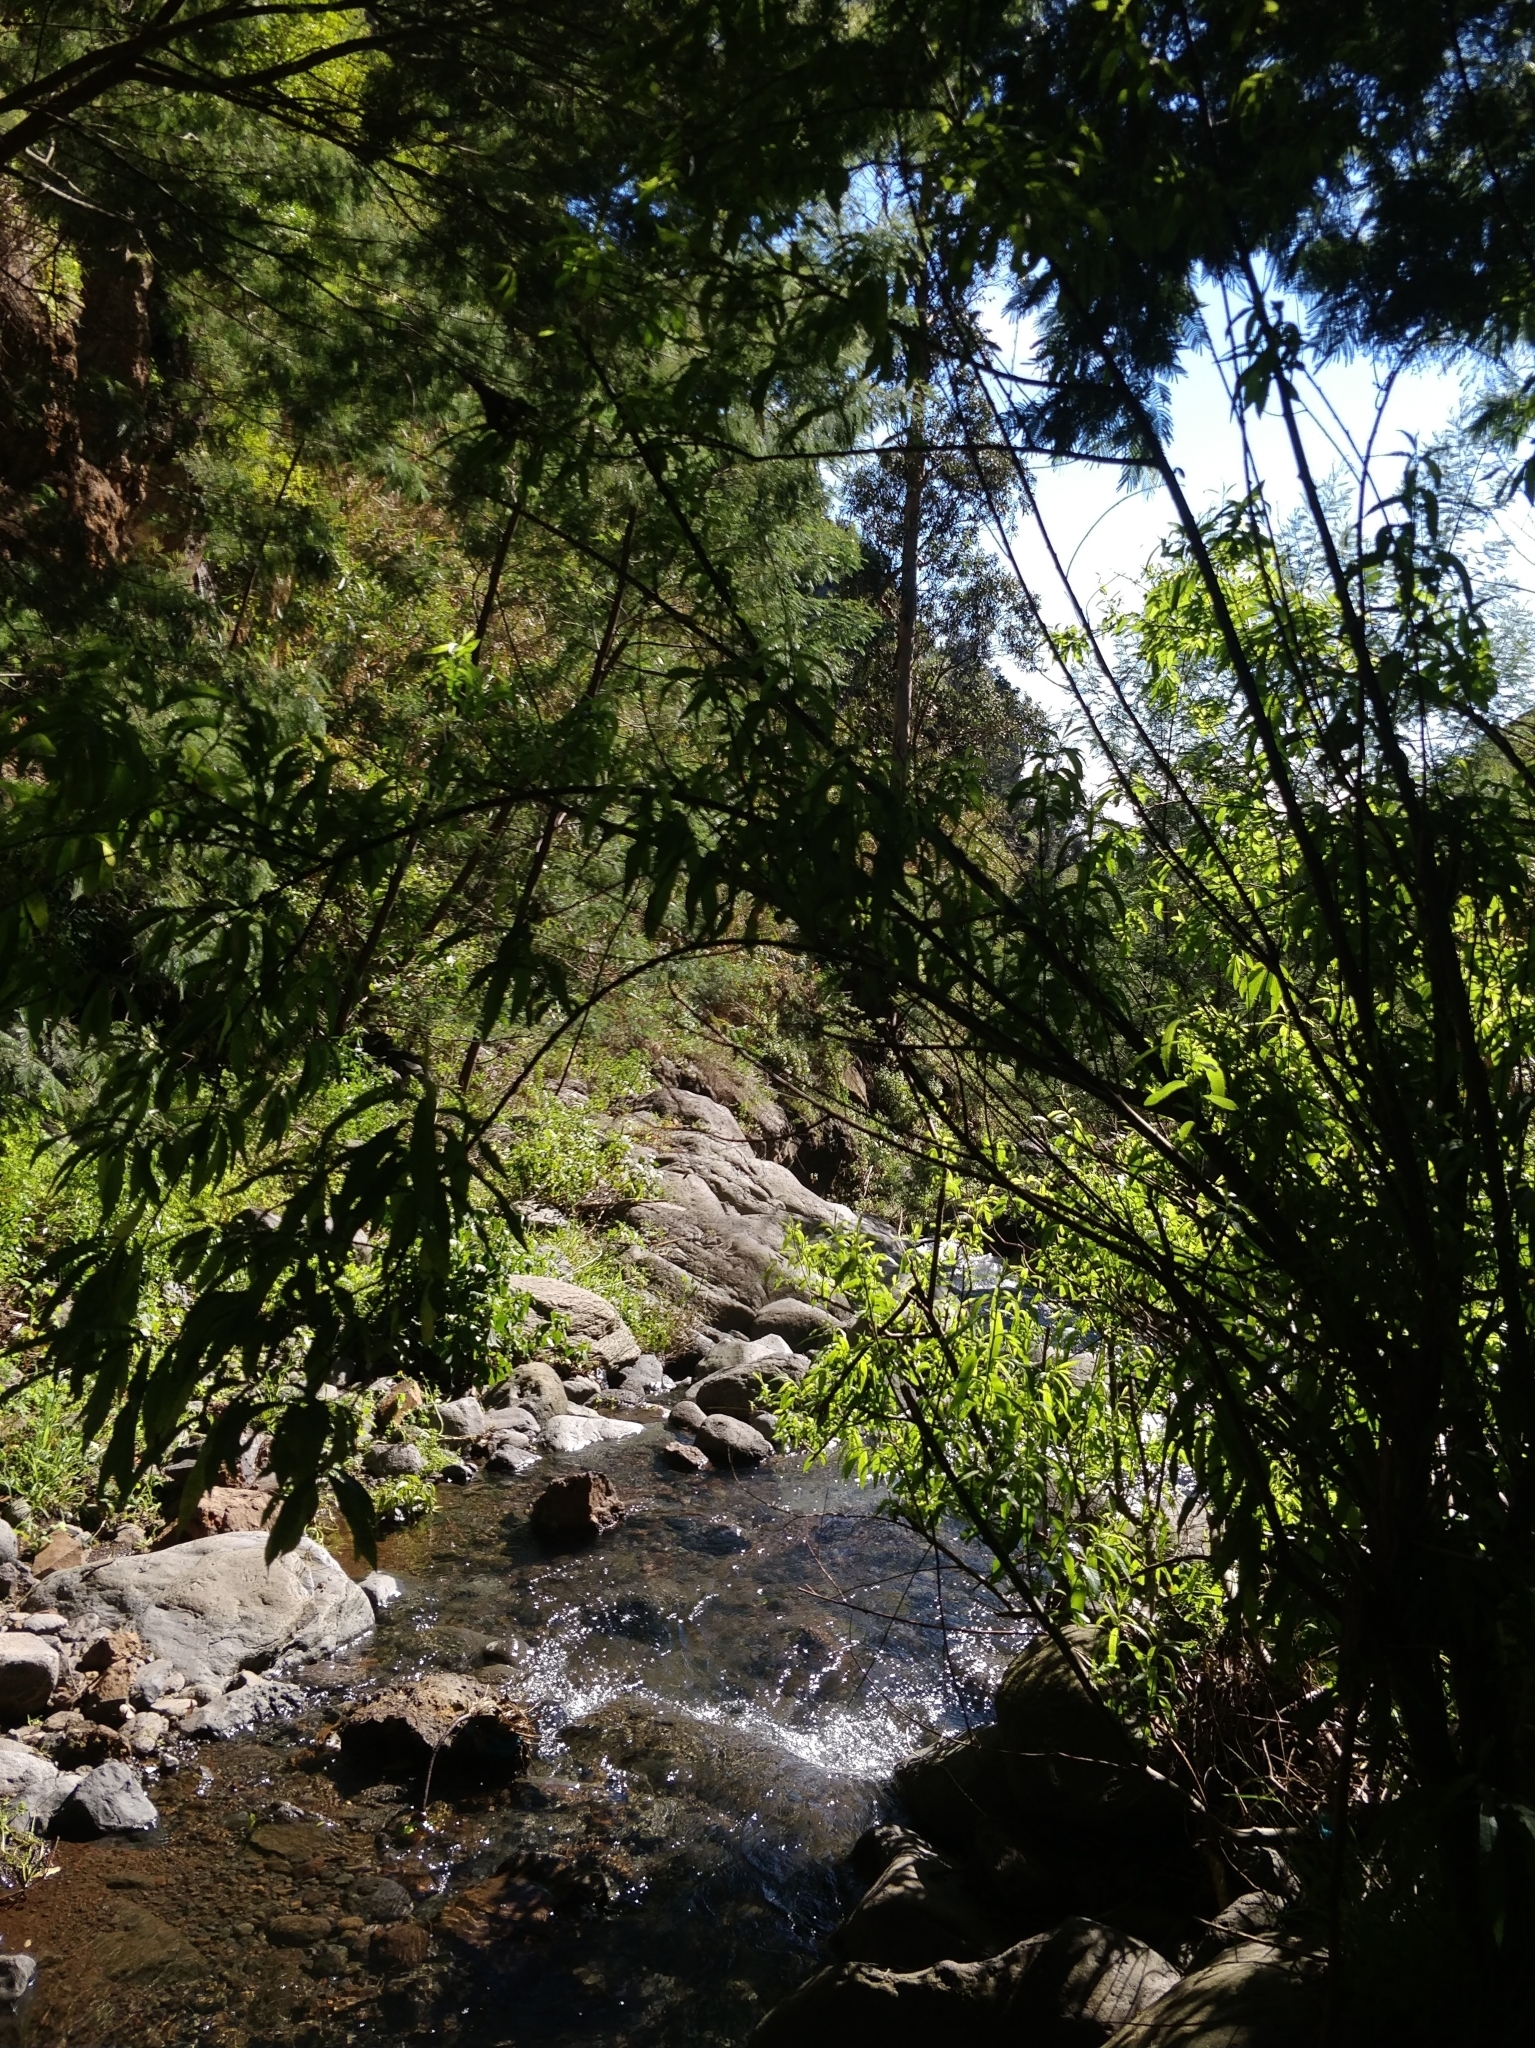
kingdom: Plantae
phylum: Tracheophyta
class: Magnoliopsida
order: Malpighiales
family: Salicaceae
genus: Salix
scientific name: Salix canariensis
